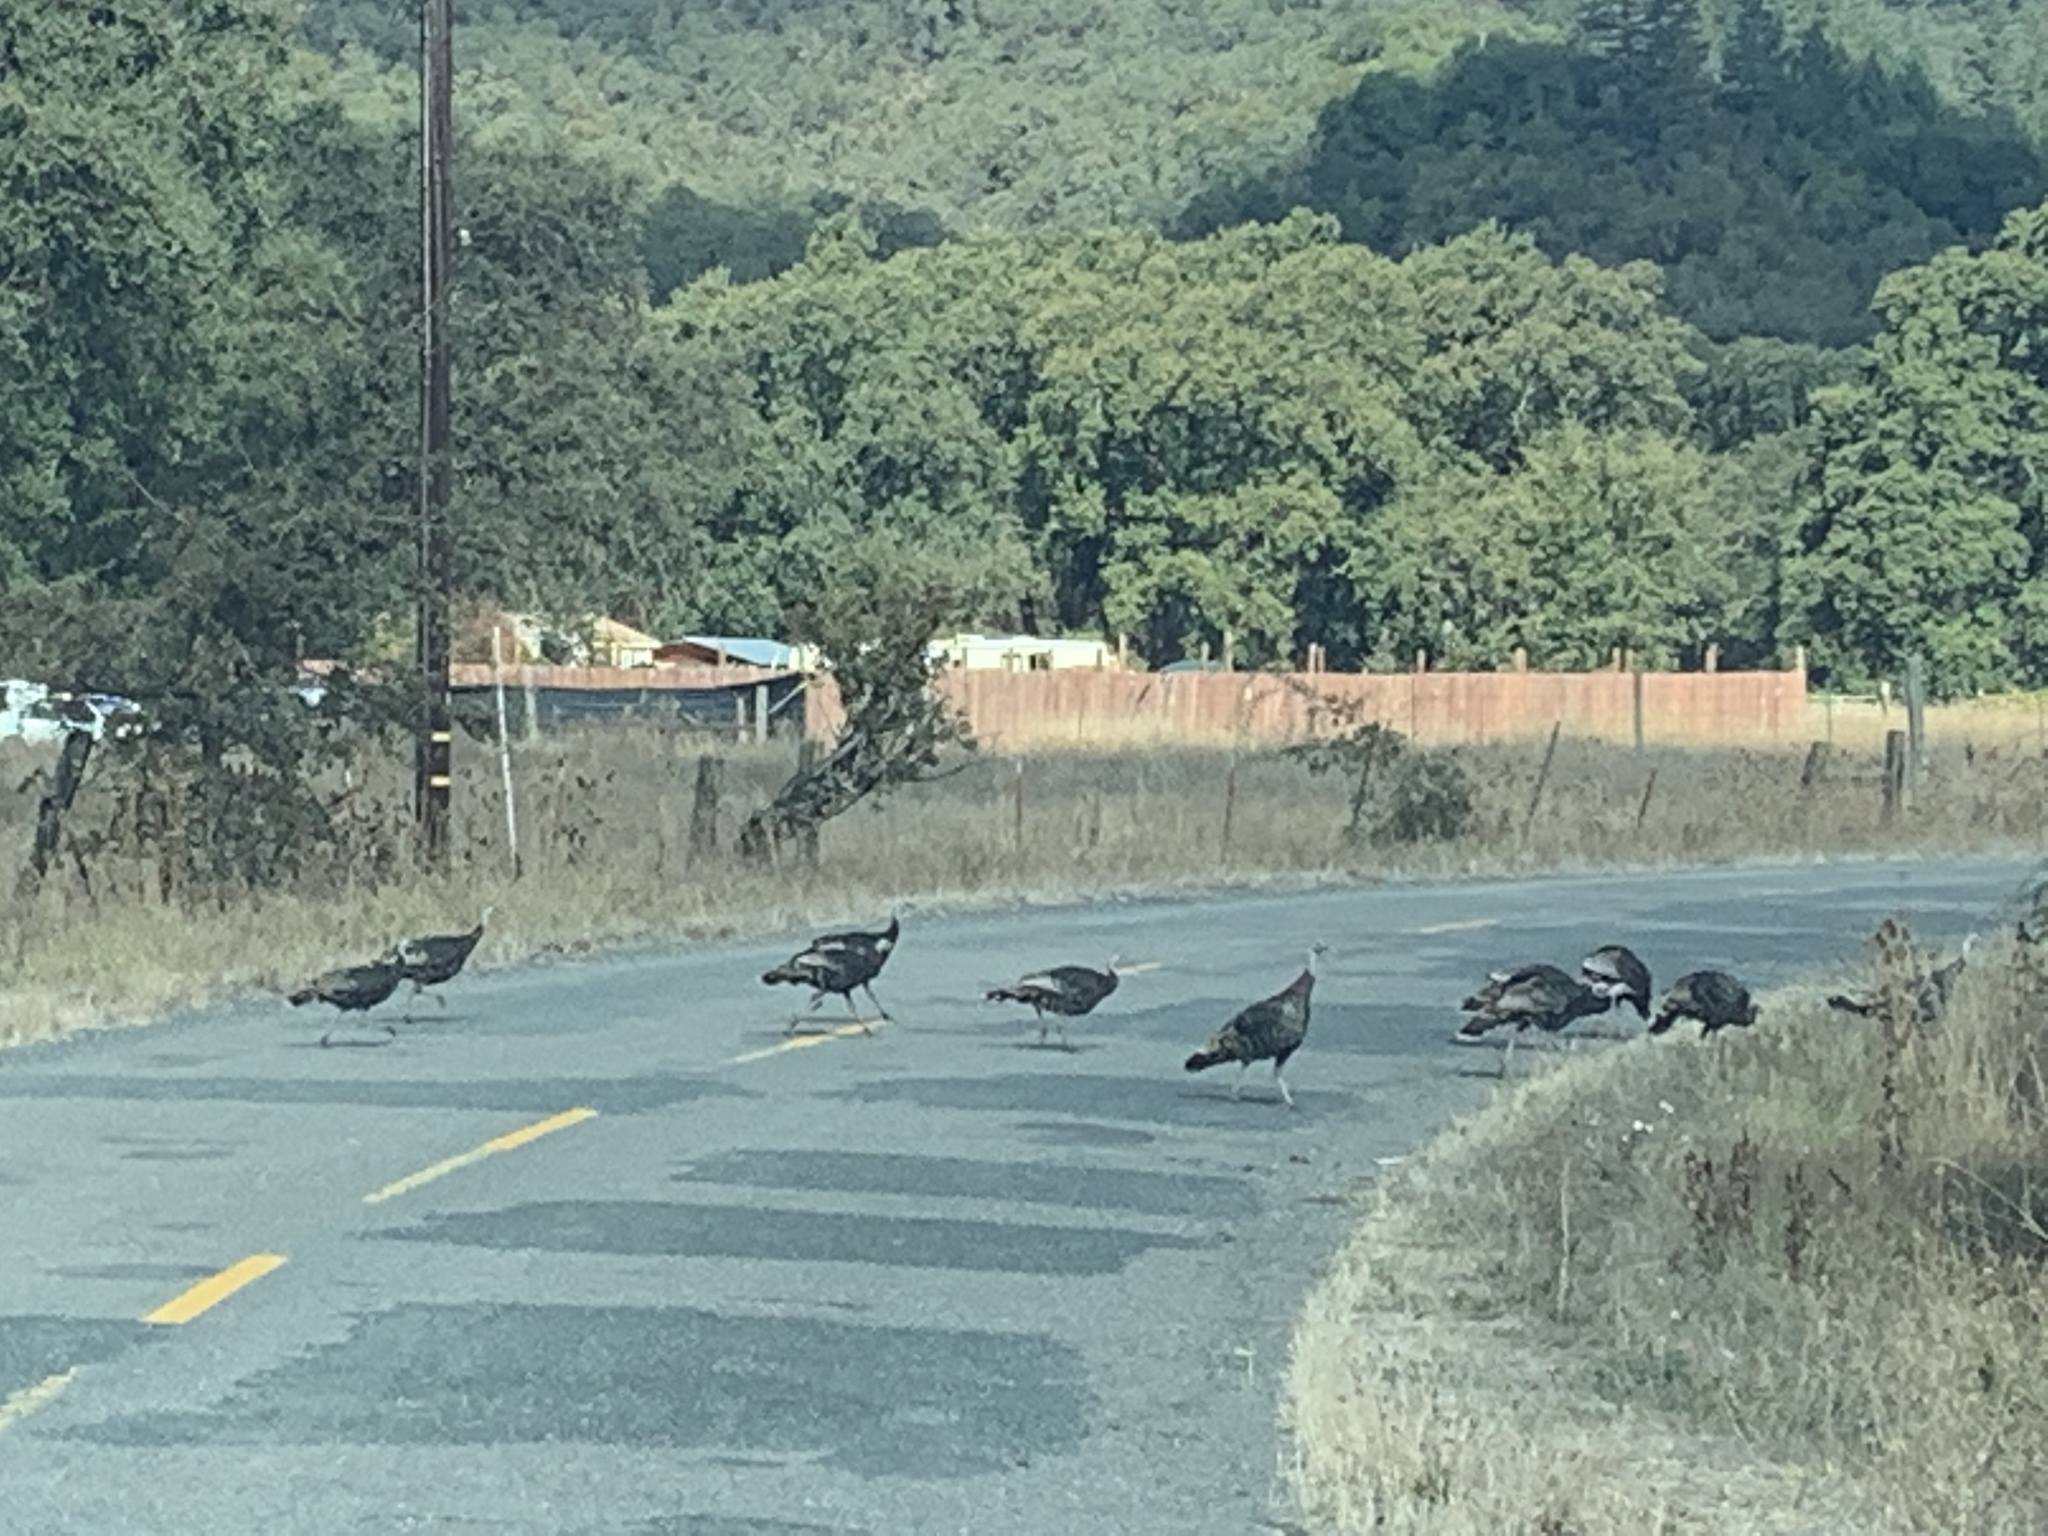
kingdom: Animalia
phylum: Chordata
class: Aves
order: Galliformes
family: Phasianidae
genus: Meleagris
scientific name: Meleagris gallopavo
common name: Wild turkey
